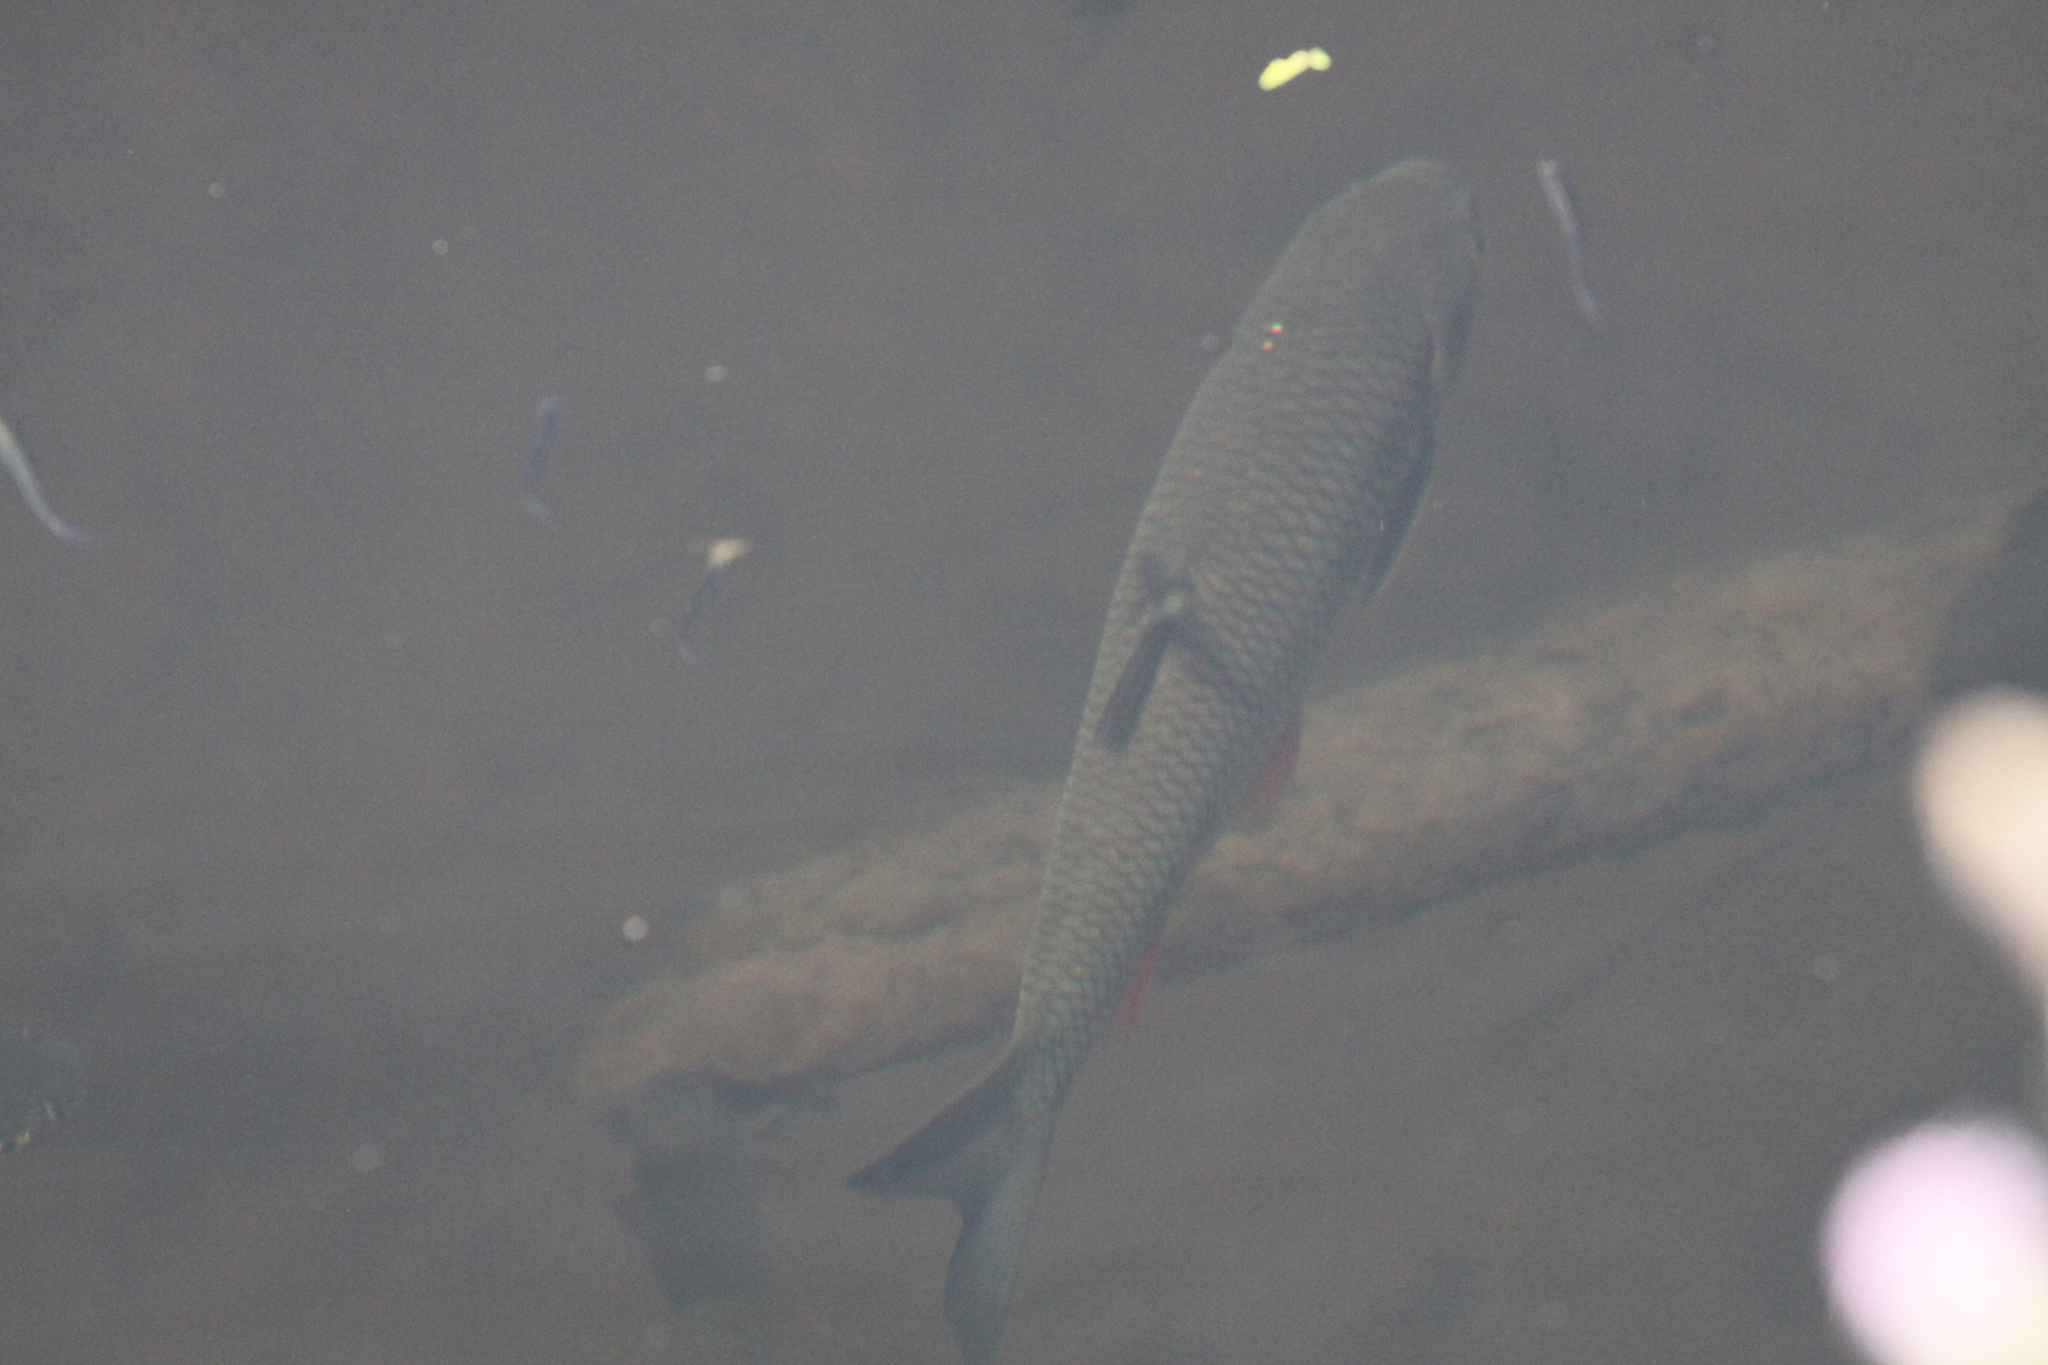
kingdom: Animalia
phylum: Chordata
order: Cypriniformes
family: Cyprinidae
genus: Squalius
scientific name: Squalius cephalus
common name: Chub
